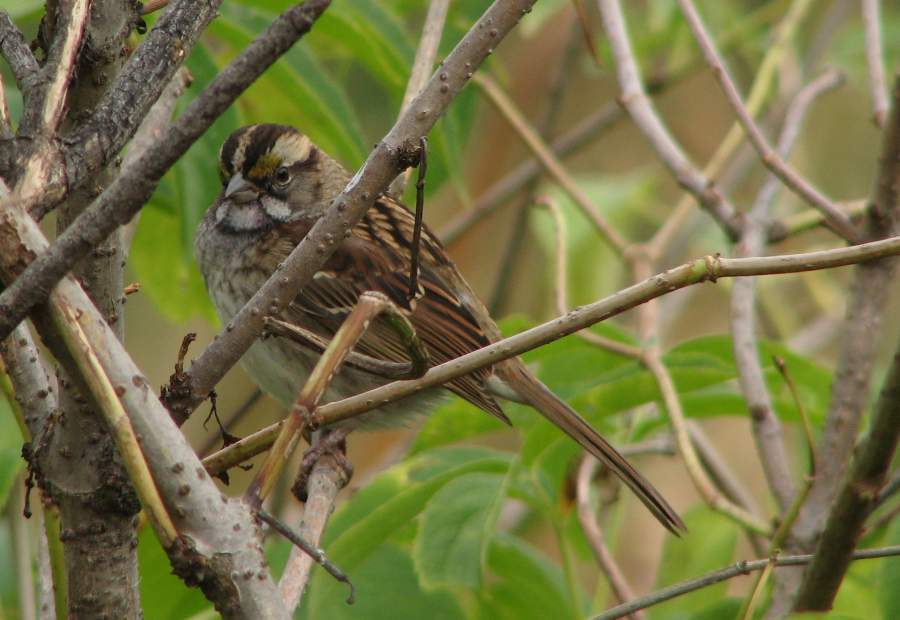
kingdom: Animalia
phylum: Chordata
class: Aves
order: Passeriformes
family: Passerellidae
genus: Zonotrichia
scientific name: Zonotrichia albicollis
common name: White-throated sparrow
